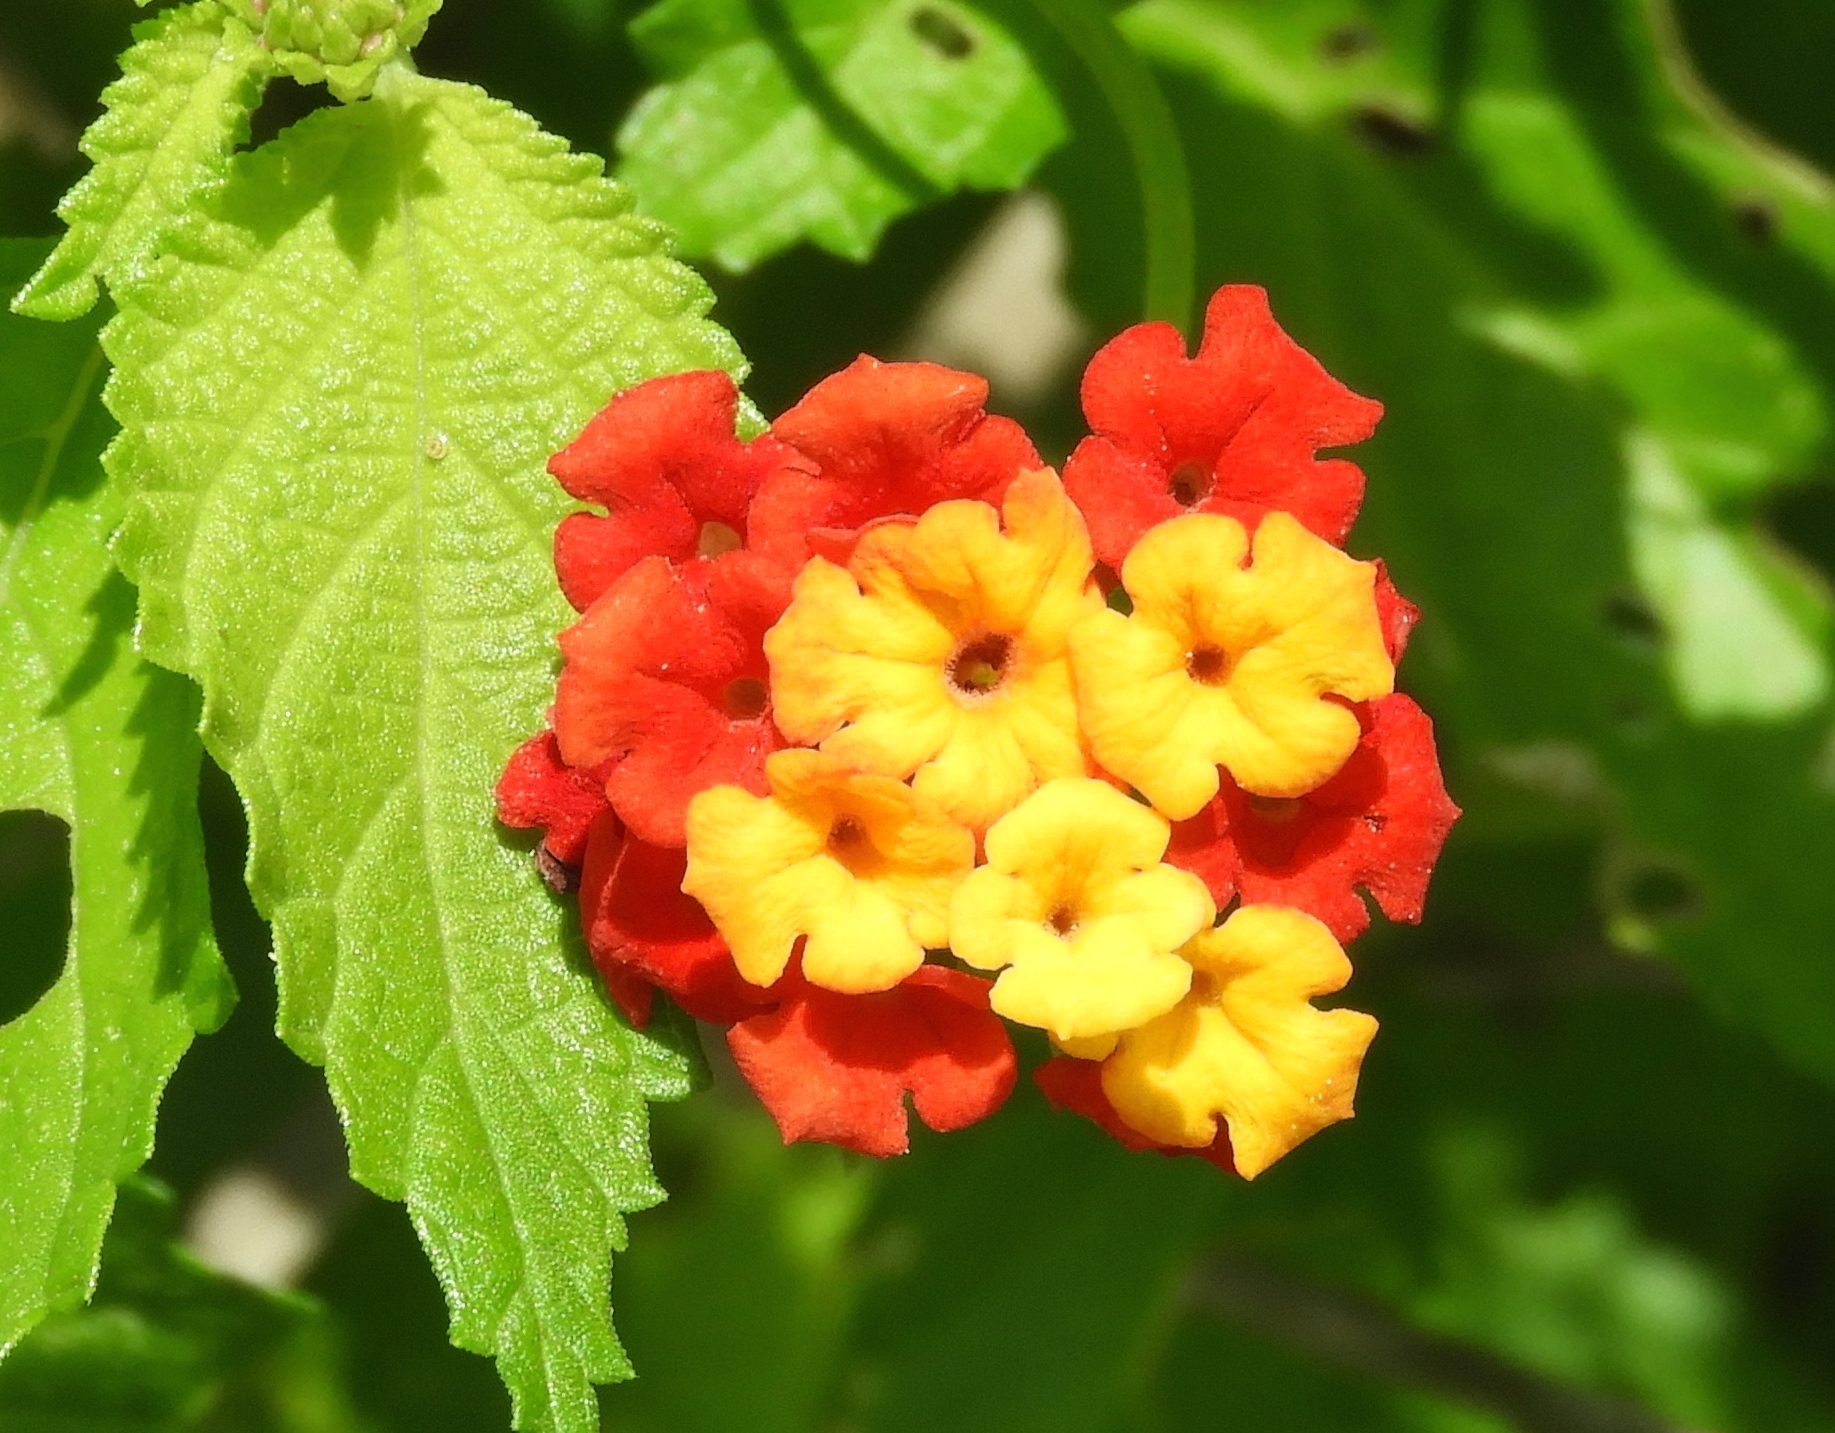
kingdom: Plantae
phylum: Tracheophyta
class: Magnoliopsida
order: Lamiales
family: Verbenaceae
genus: Lantana
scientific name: Lantana camara
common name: Lantana
